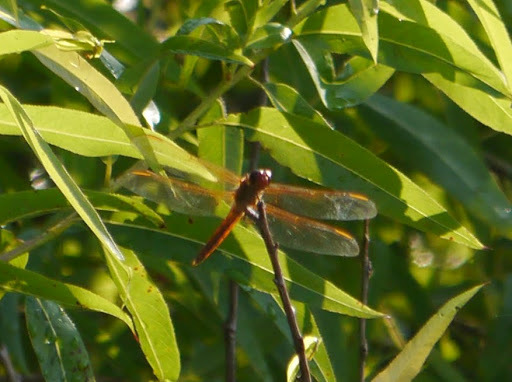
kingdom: Animalia
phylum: Arthropoda
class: Insecta
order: Odonata
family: Libellulidae
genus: Libellula
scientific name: Libellula needhami
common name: Needham's skimmer
